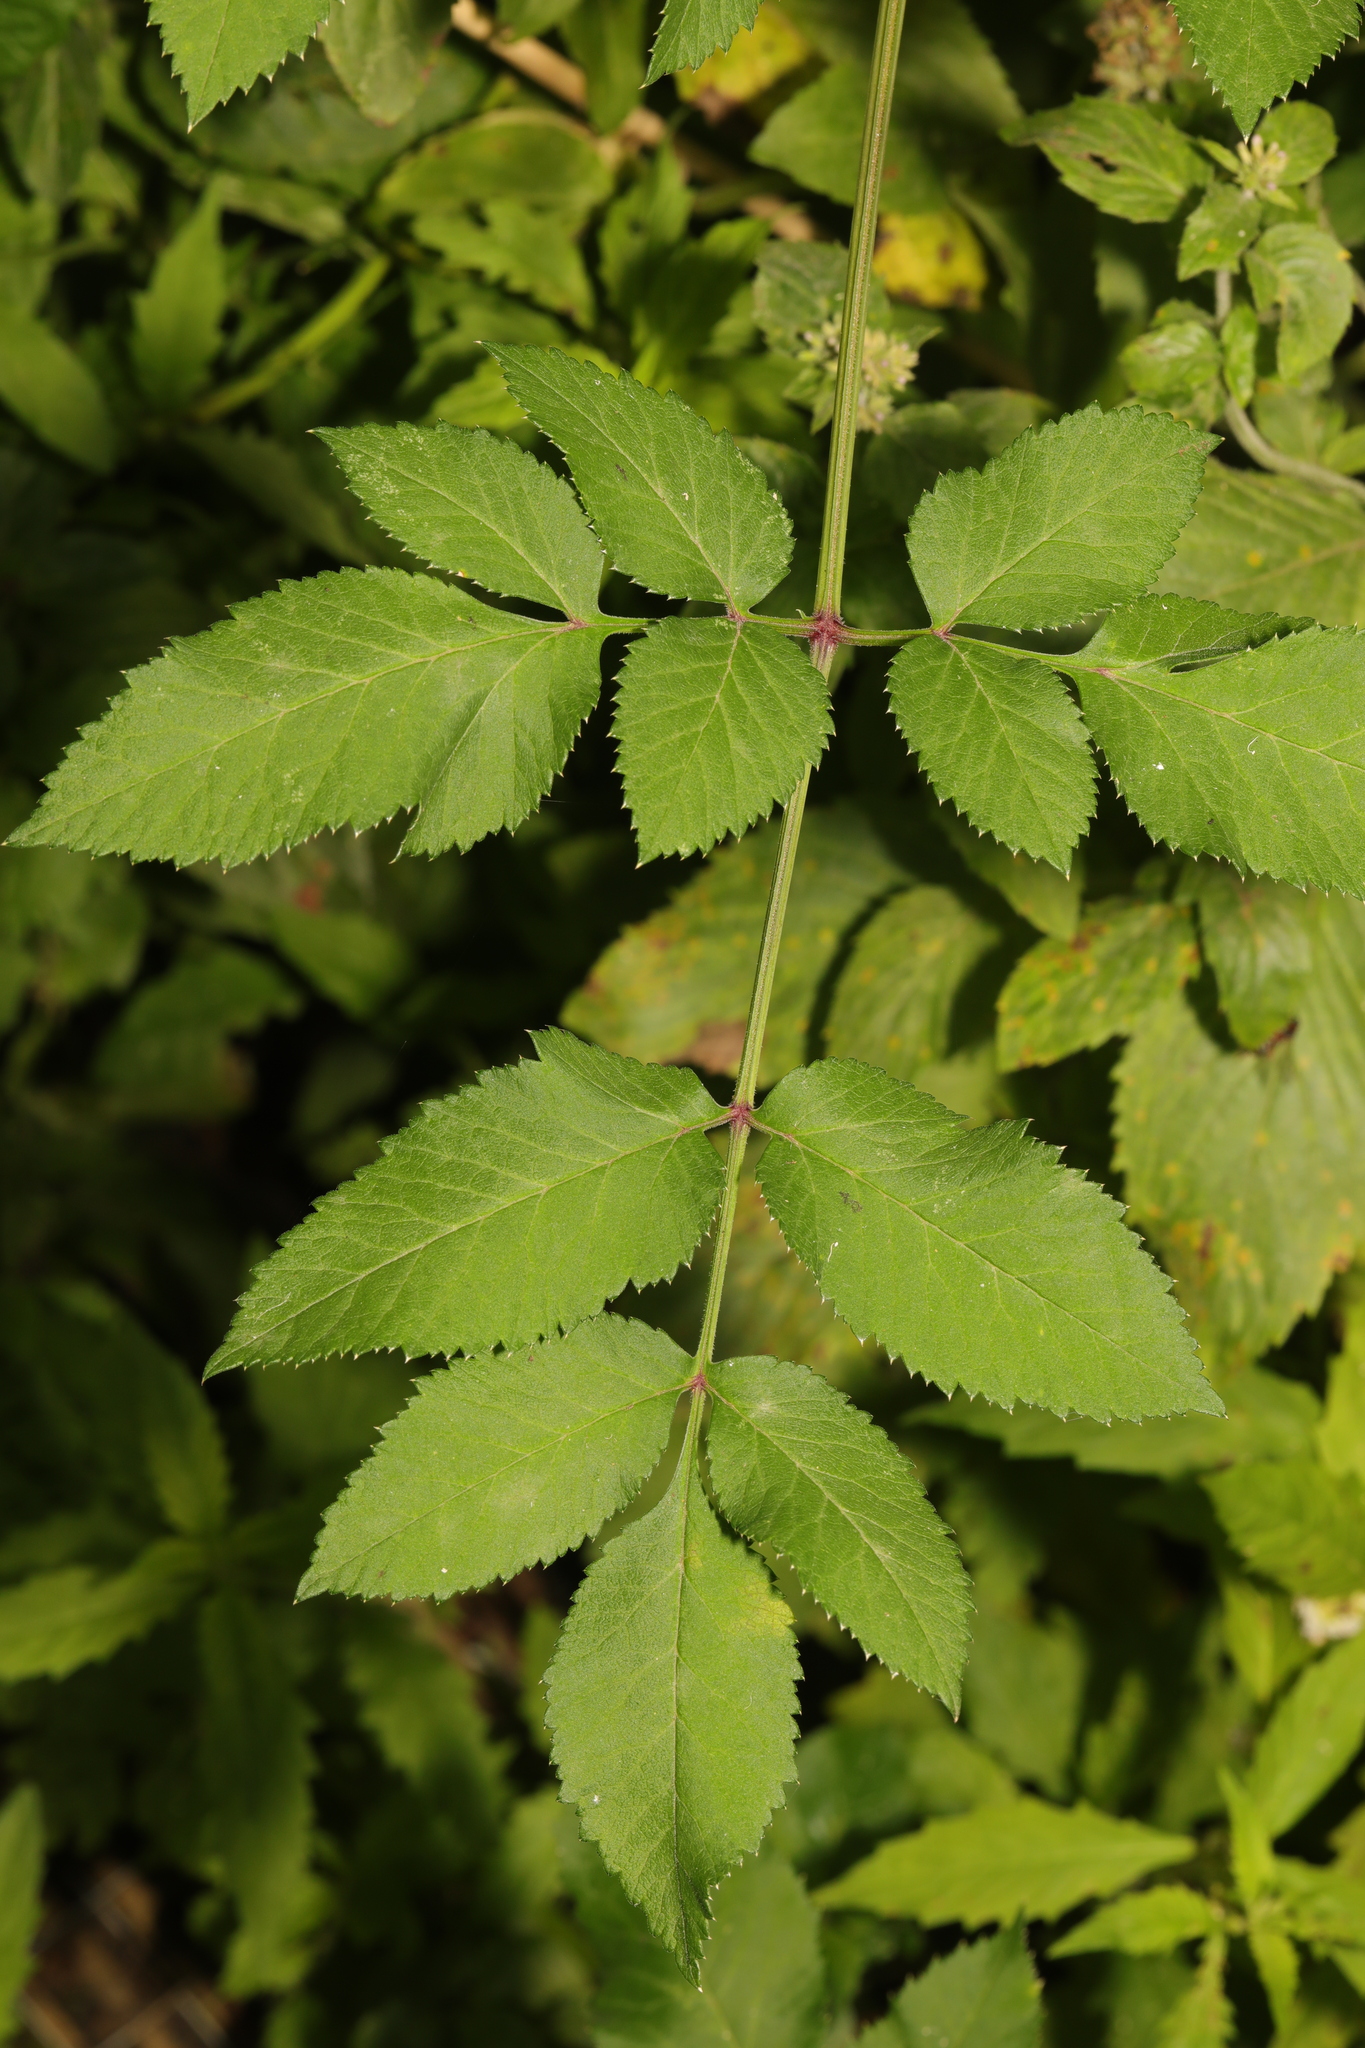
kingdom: Plantae
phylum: Tracheophyta
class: Magnoliopsida
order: Apiales
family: Apiaceae
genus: Angelica
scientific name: Angelica sylvestris
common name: Wild angelica
